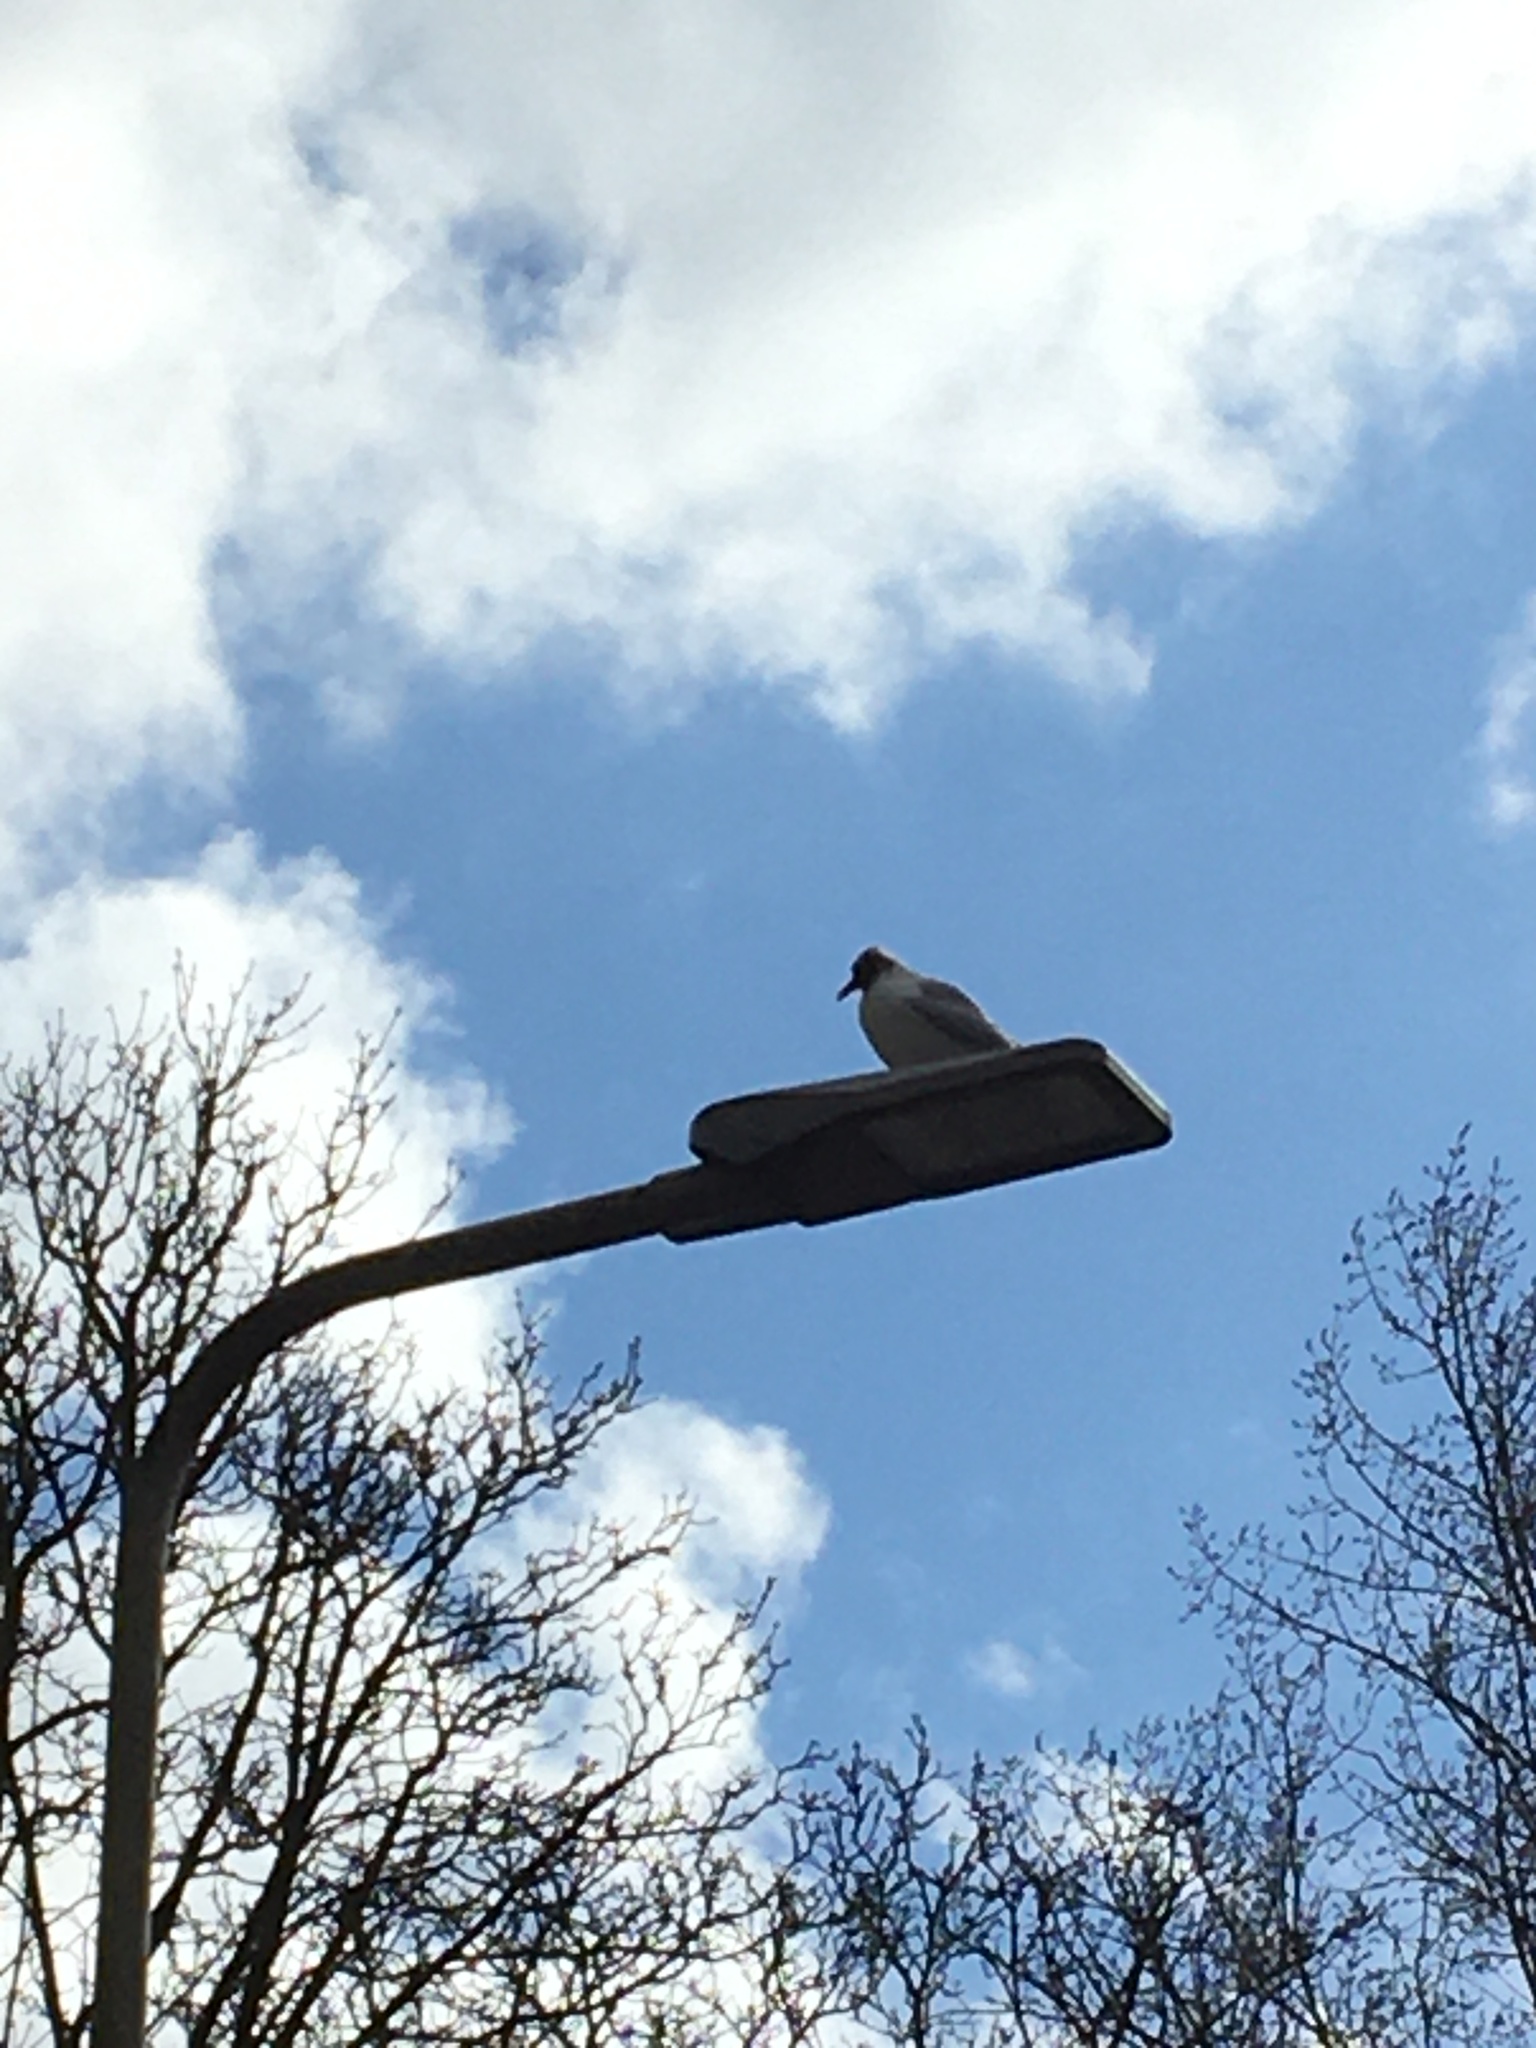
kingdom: Animalia
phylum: Chordata
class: Aves
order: Charadriiformes
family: Laridae
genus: Chroicocephalus
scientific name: Chroicocephalus ridibundus
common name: Black-headed gull
